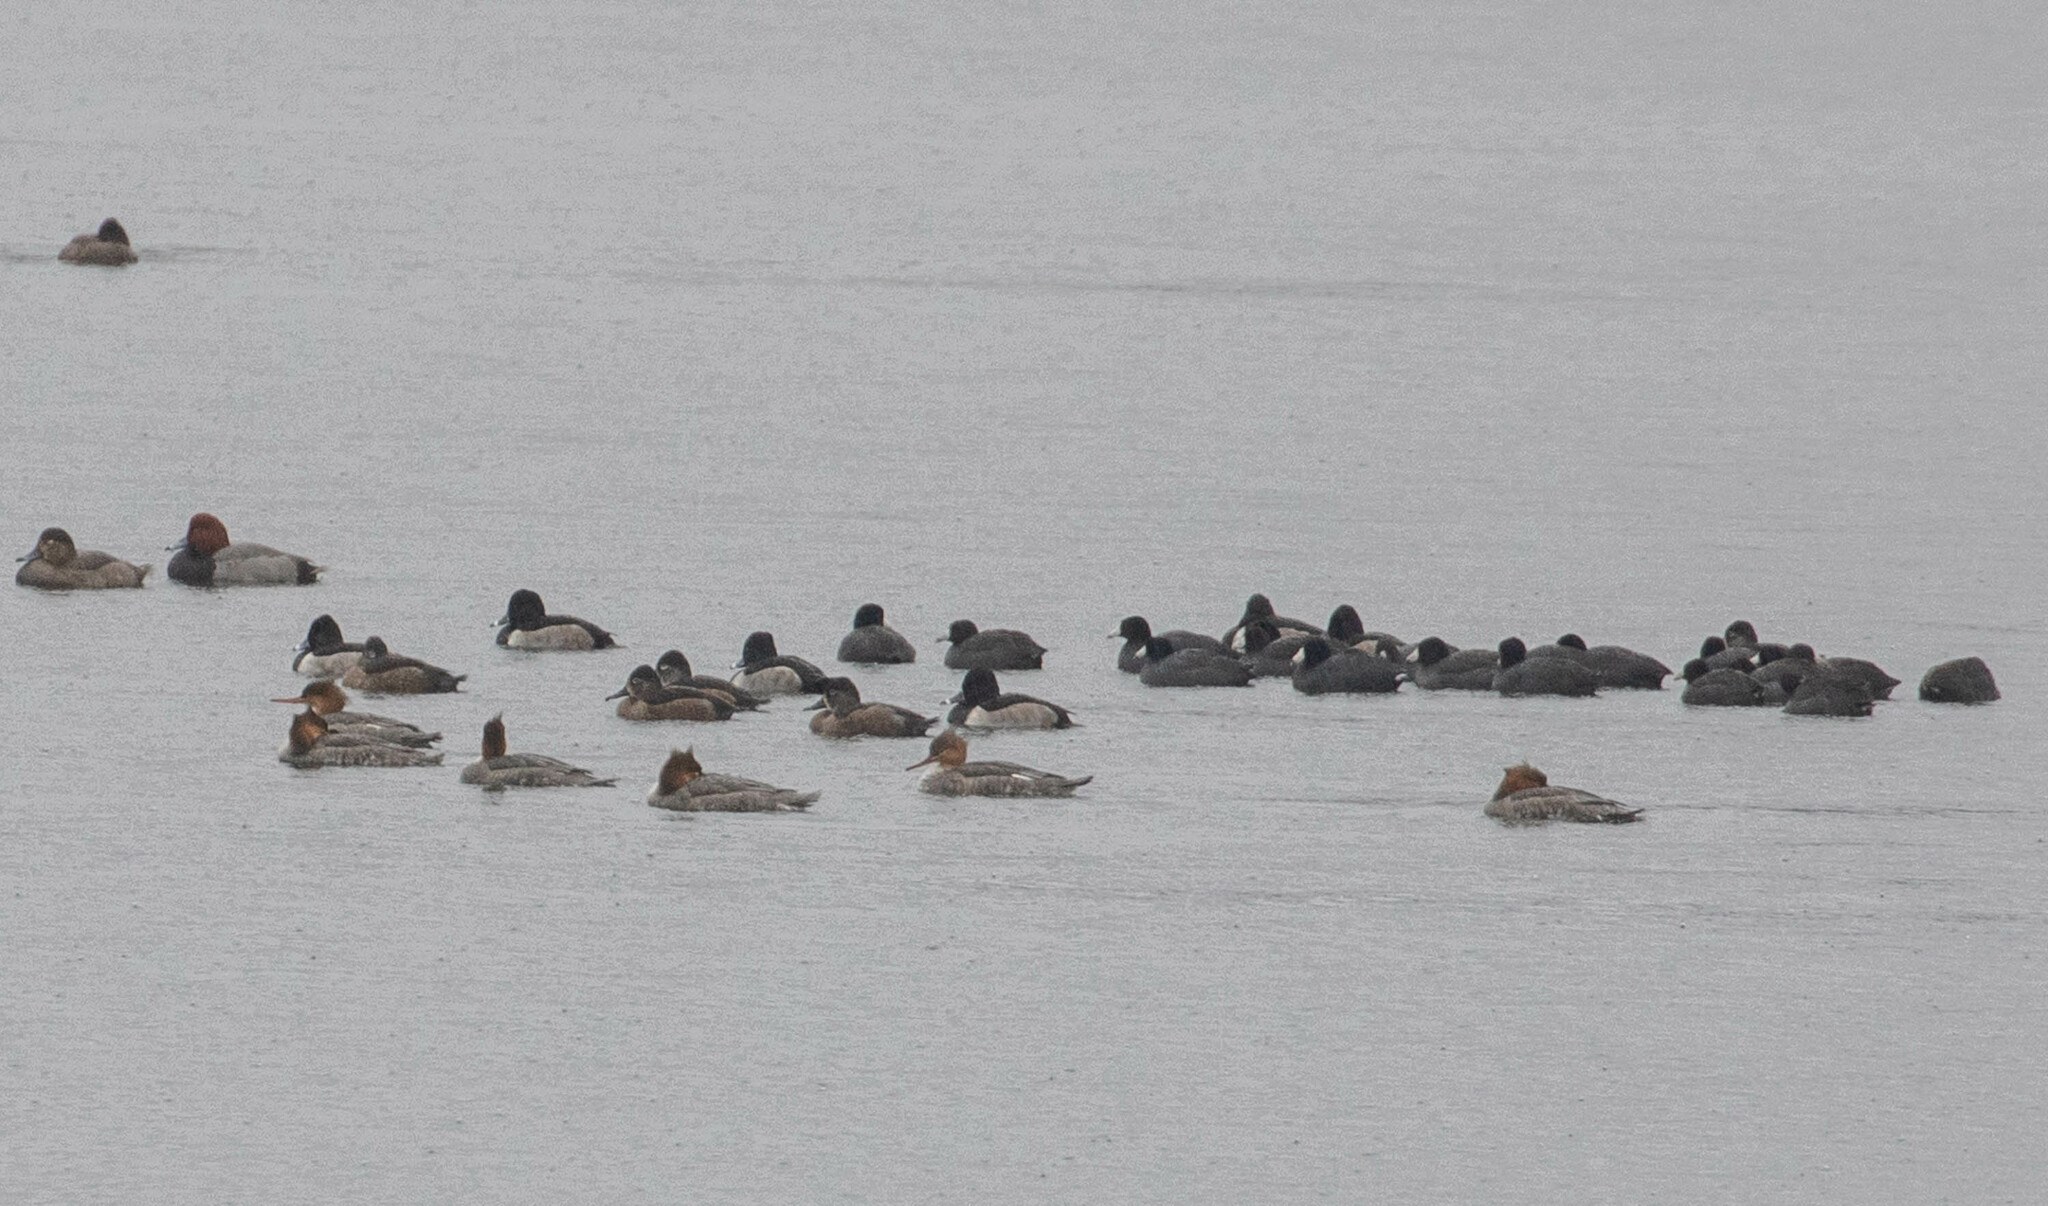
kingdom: Animalia
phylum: Chordata
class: Aves
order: Anseriformes
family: Anatidae
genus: Mergus
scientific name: Mergus serrator
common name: Red-breasted merganser
